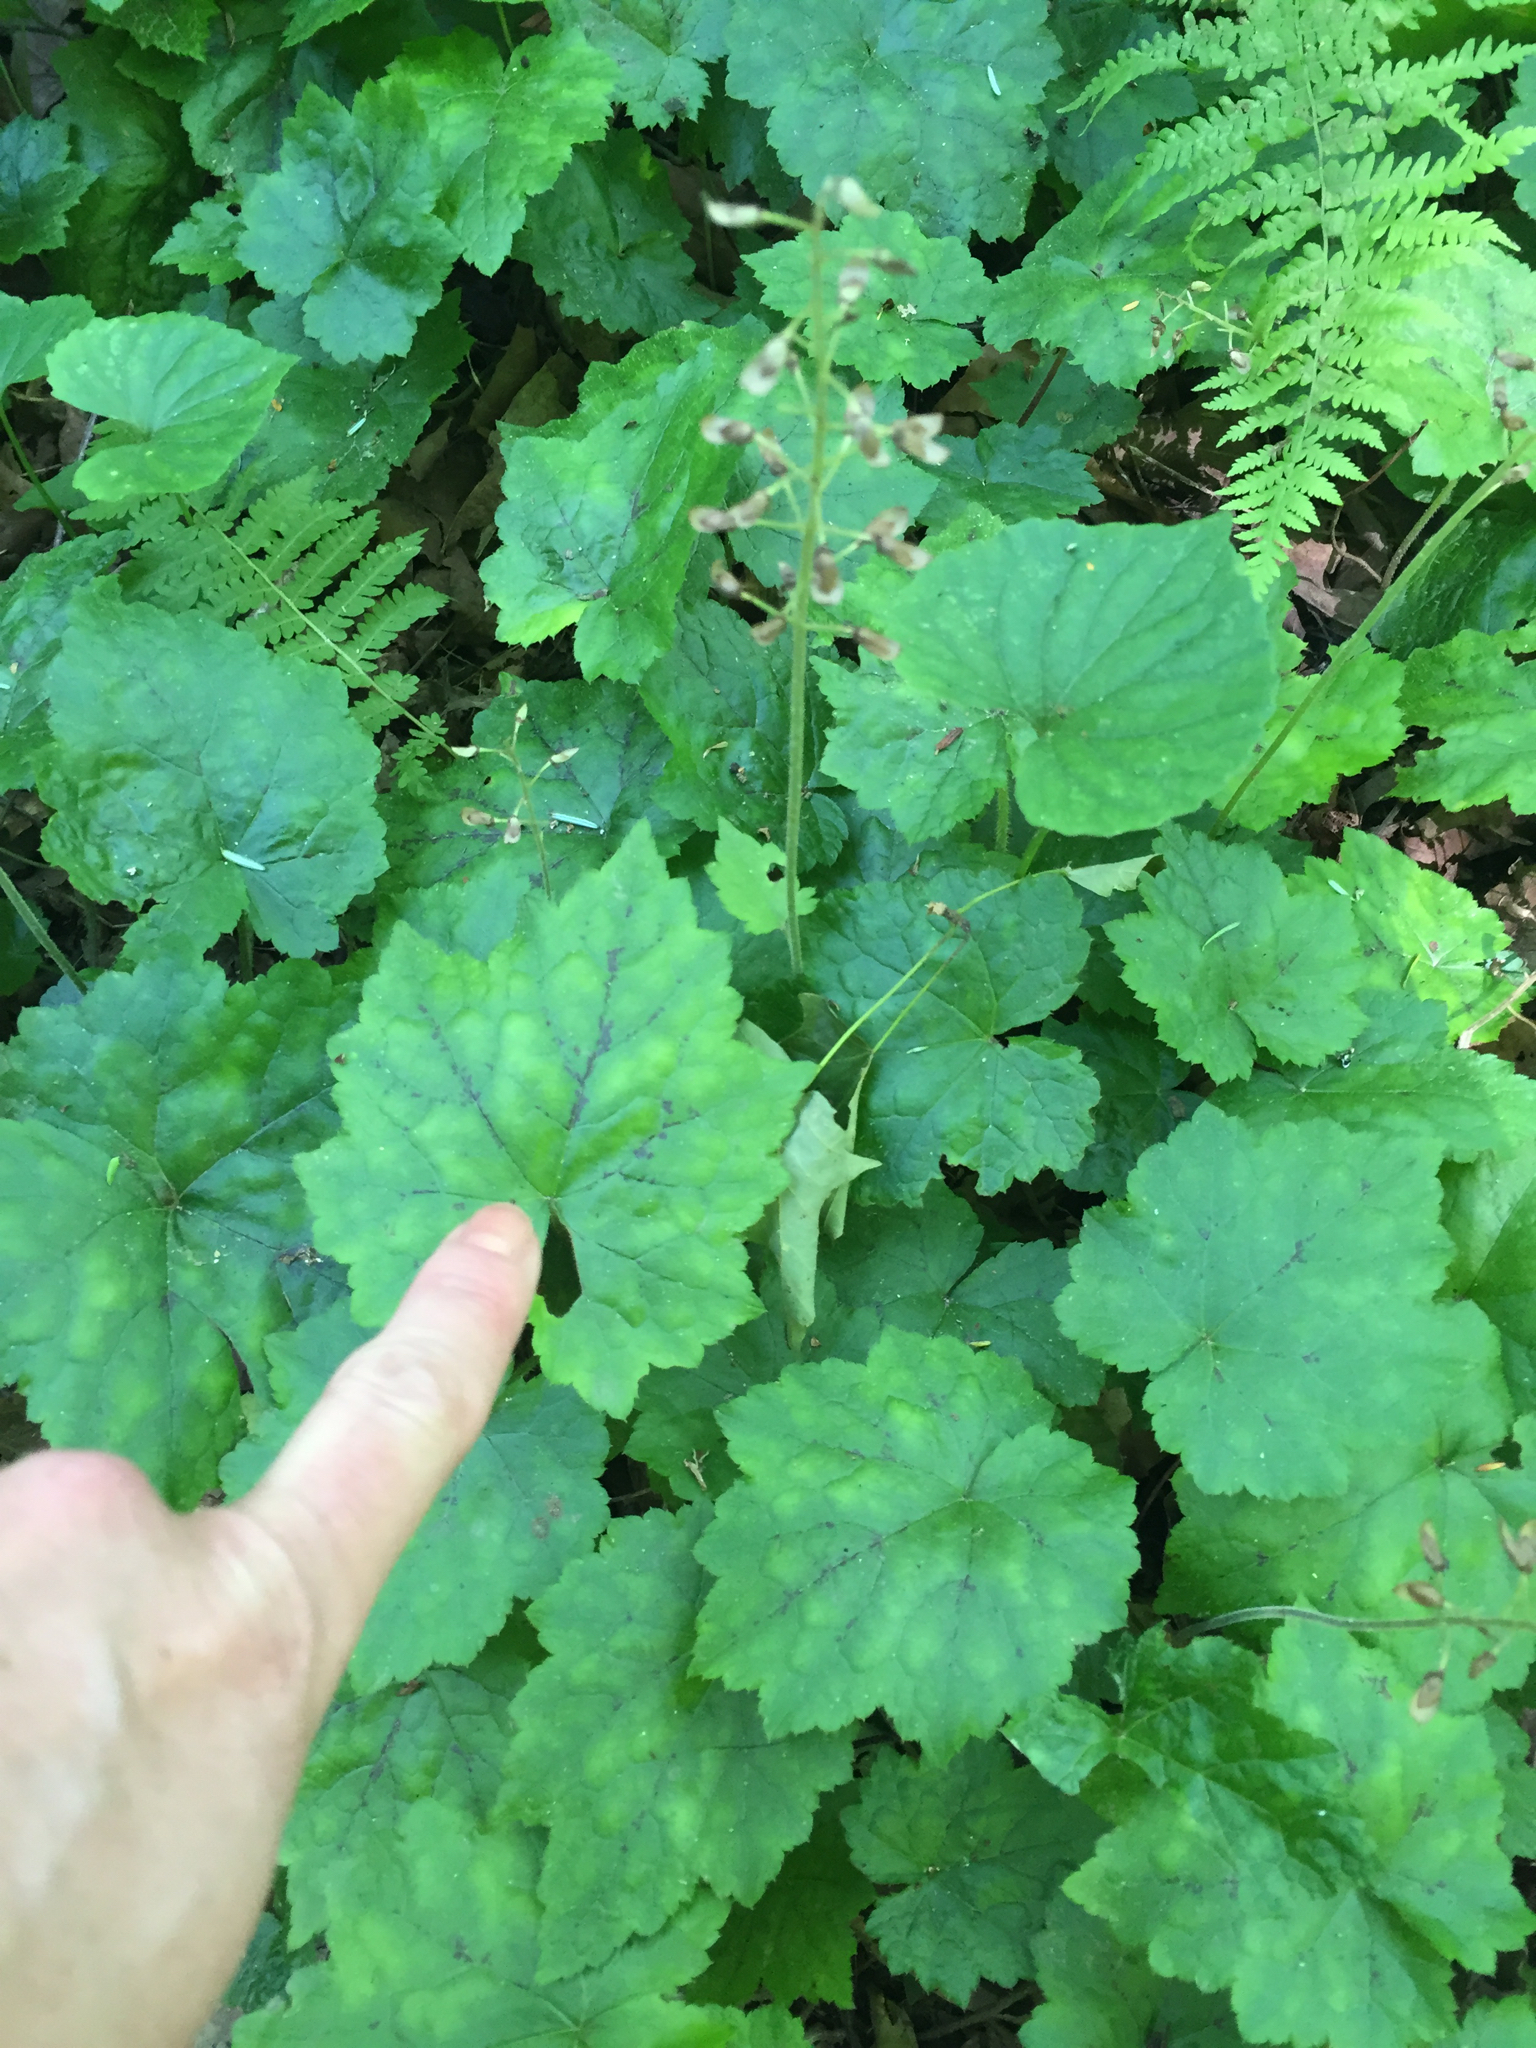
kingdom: Plantae
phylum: Tracheophyta
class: Magnoliopsida
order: Saxifragales
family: Saxifragaceae
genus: Tiarella
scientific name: Tiarella stolonifera
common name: Stoloniferous foamflower
